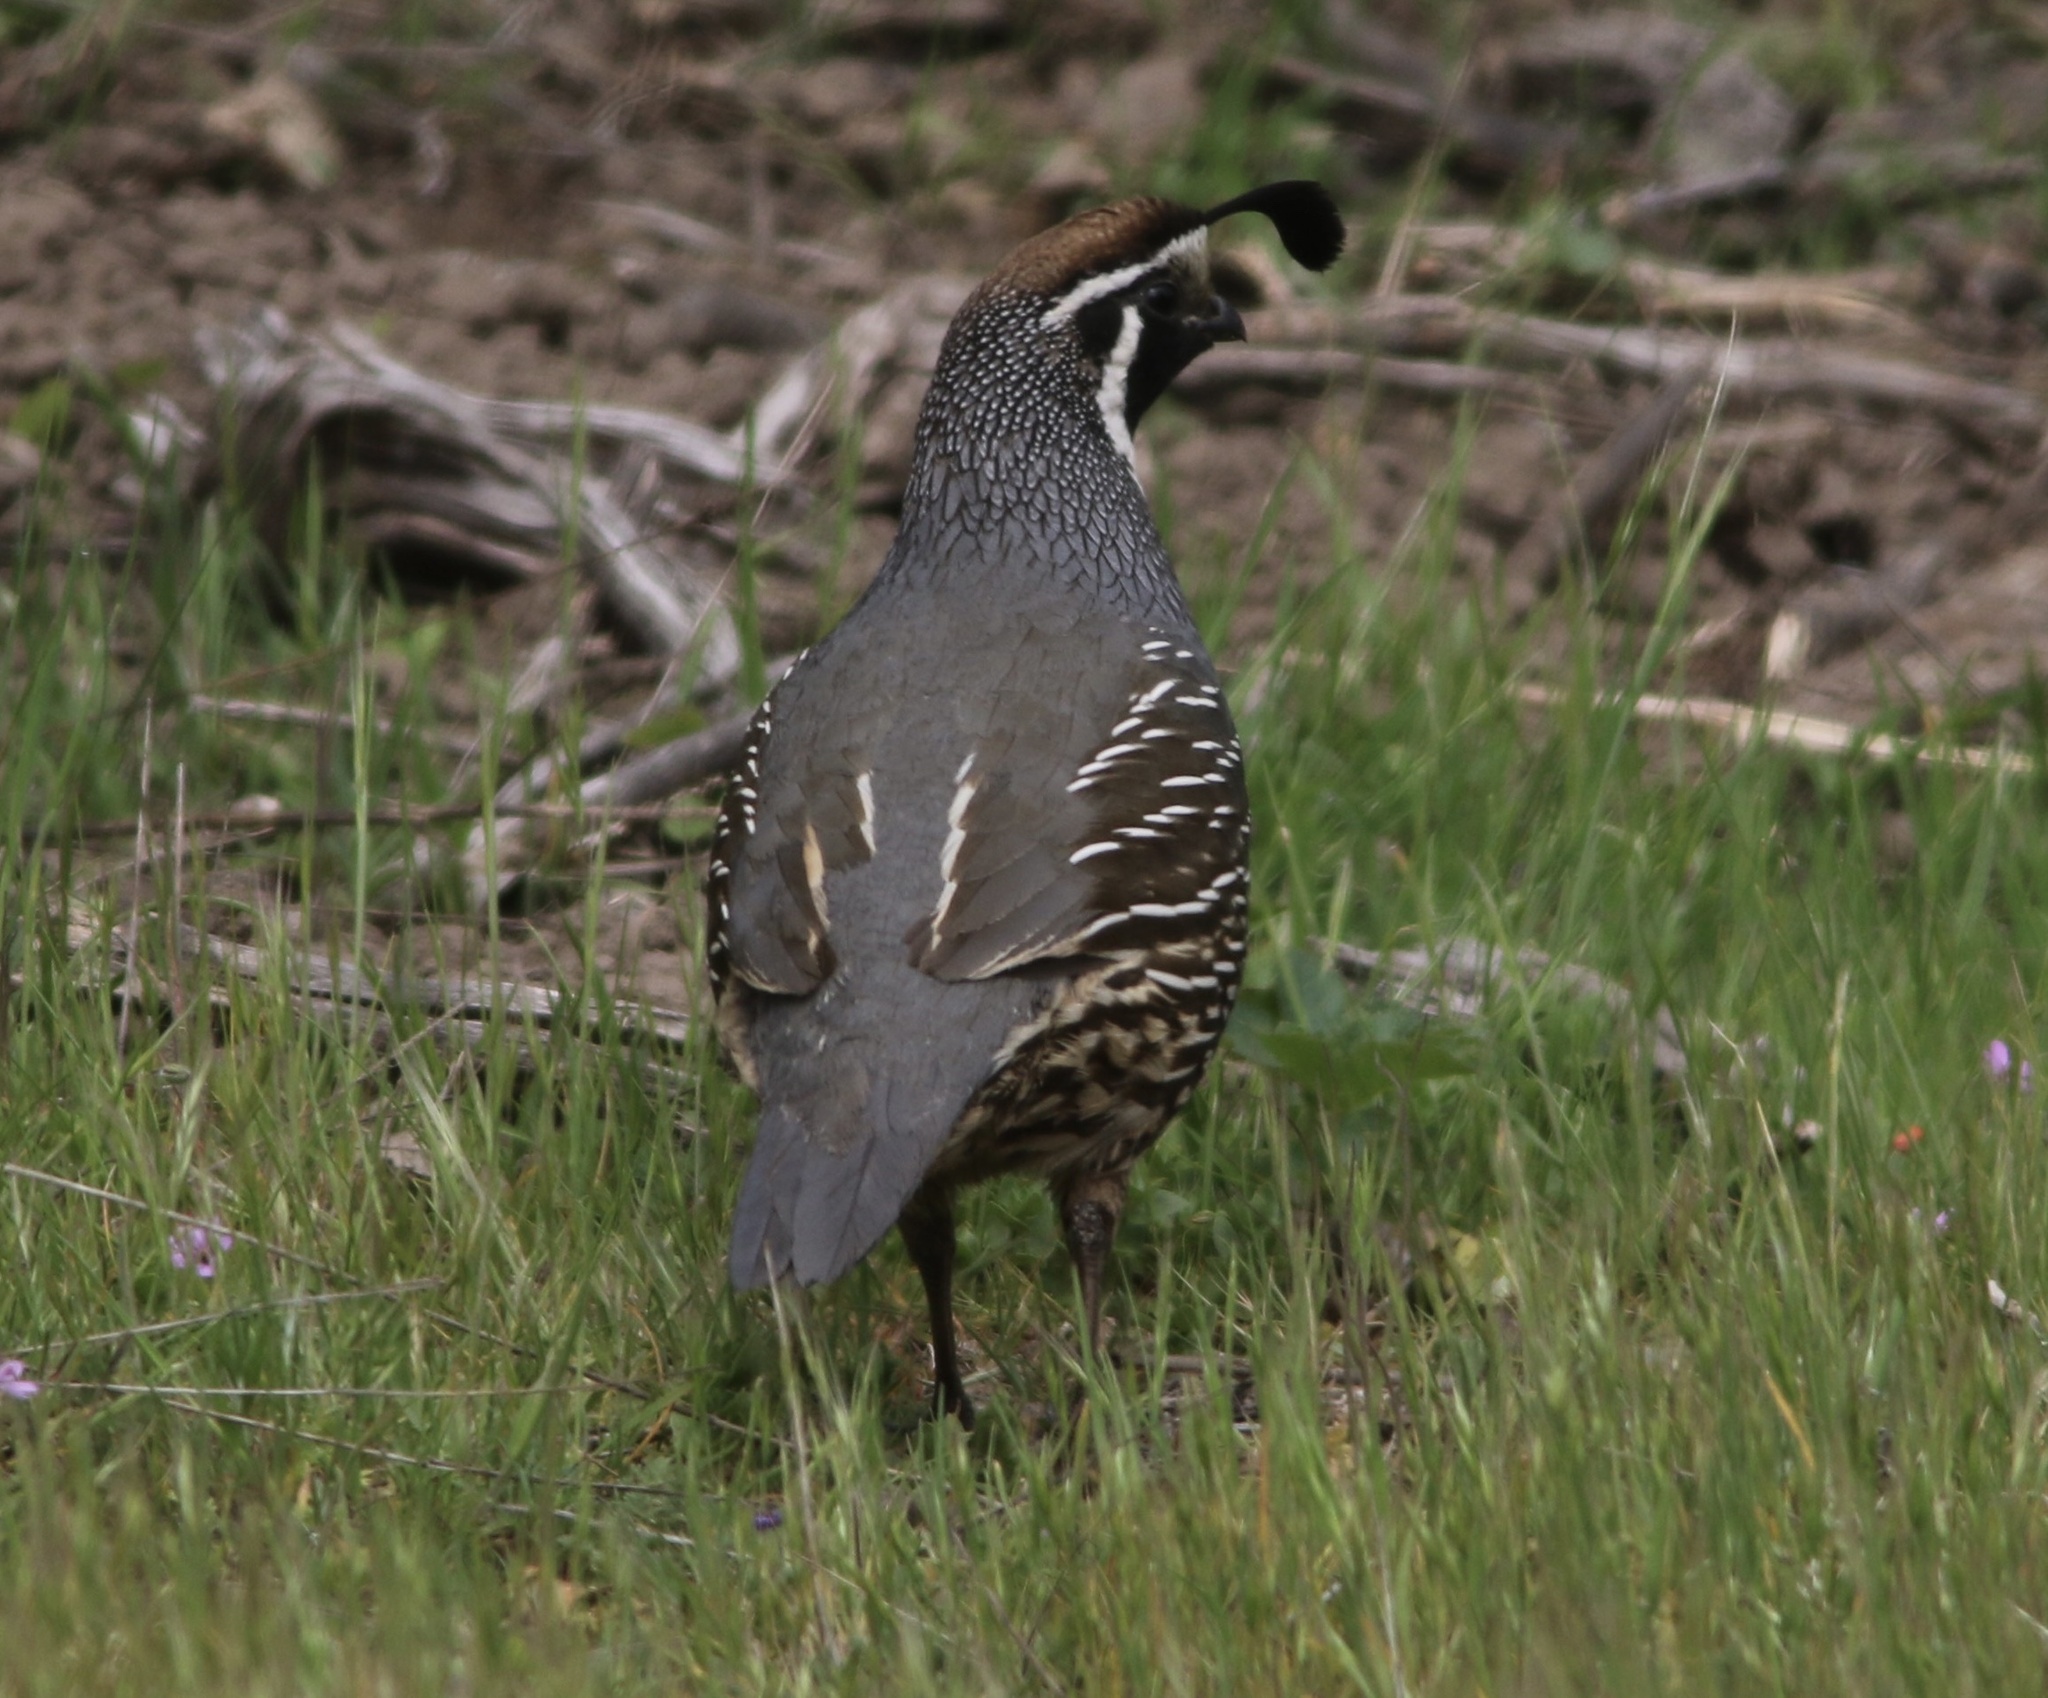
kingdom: Animalia
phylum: Chordata
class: Aves
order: Galliformes
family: Odontophoridae
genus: Callipepla
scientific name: Callipepla californica
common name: California quail
